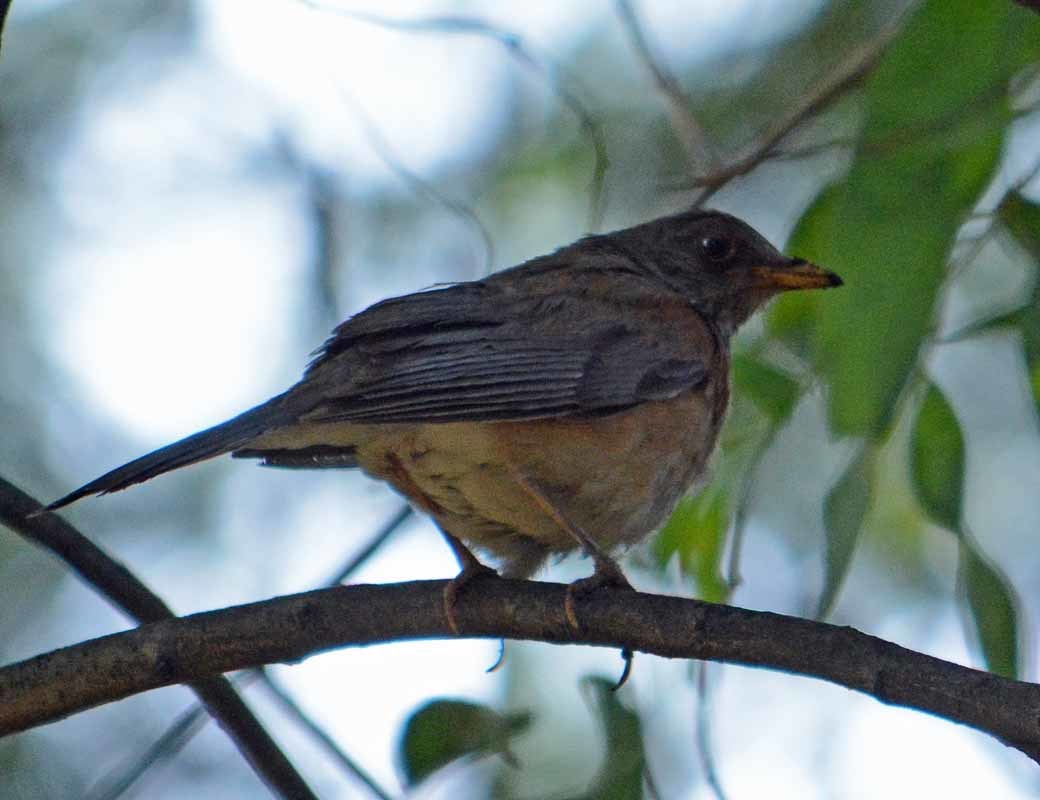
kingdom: Animalia
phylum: Chordata
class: Aves
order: Passeriformes
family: Turdidae
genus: Turdus
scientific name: Turdus rufopalliatus
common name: Rufous-backed robin
